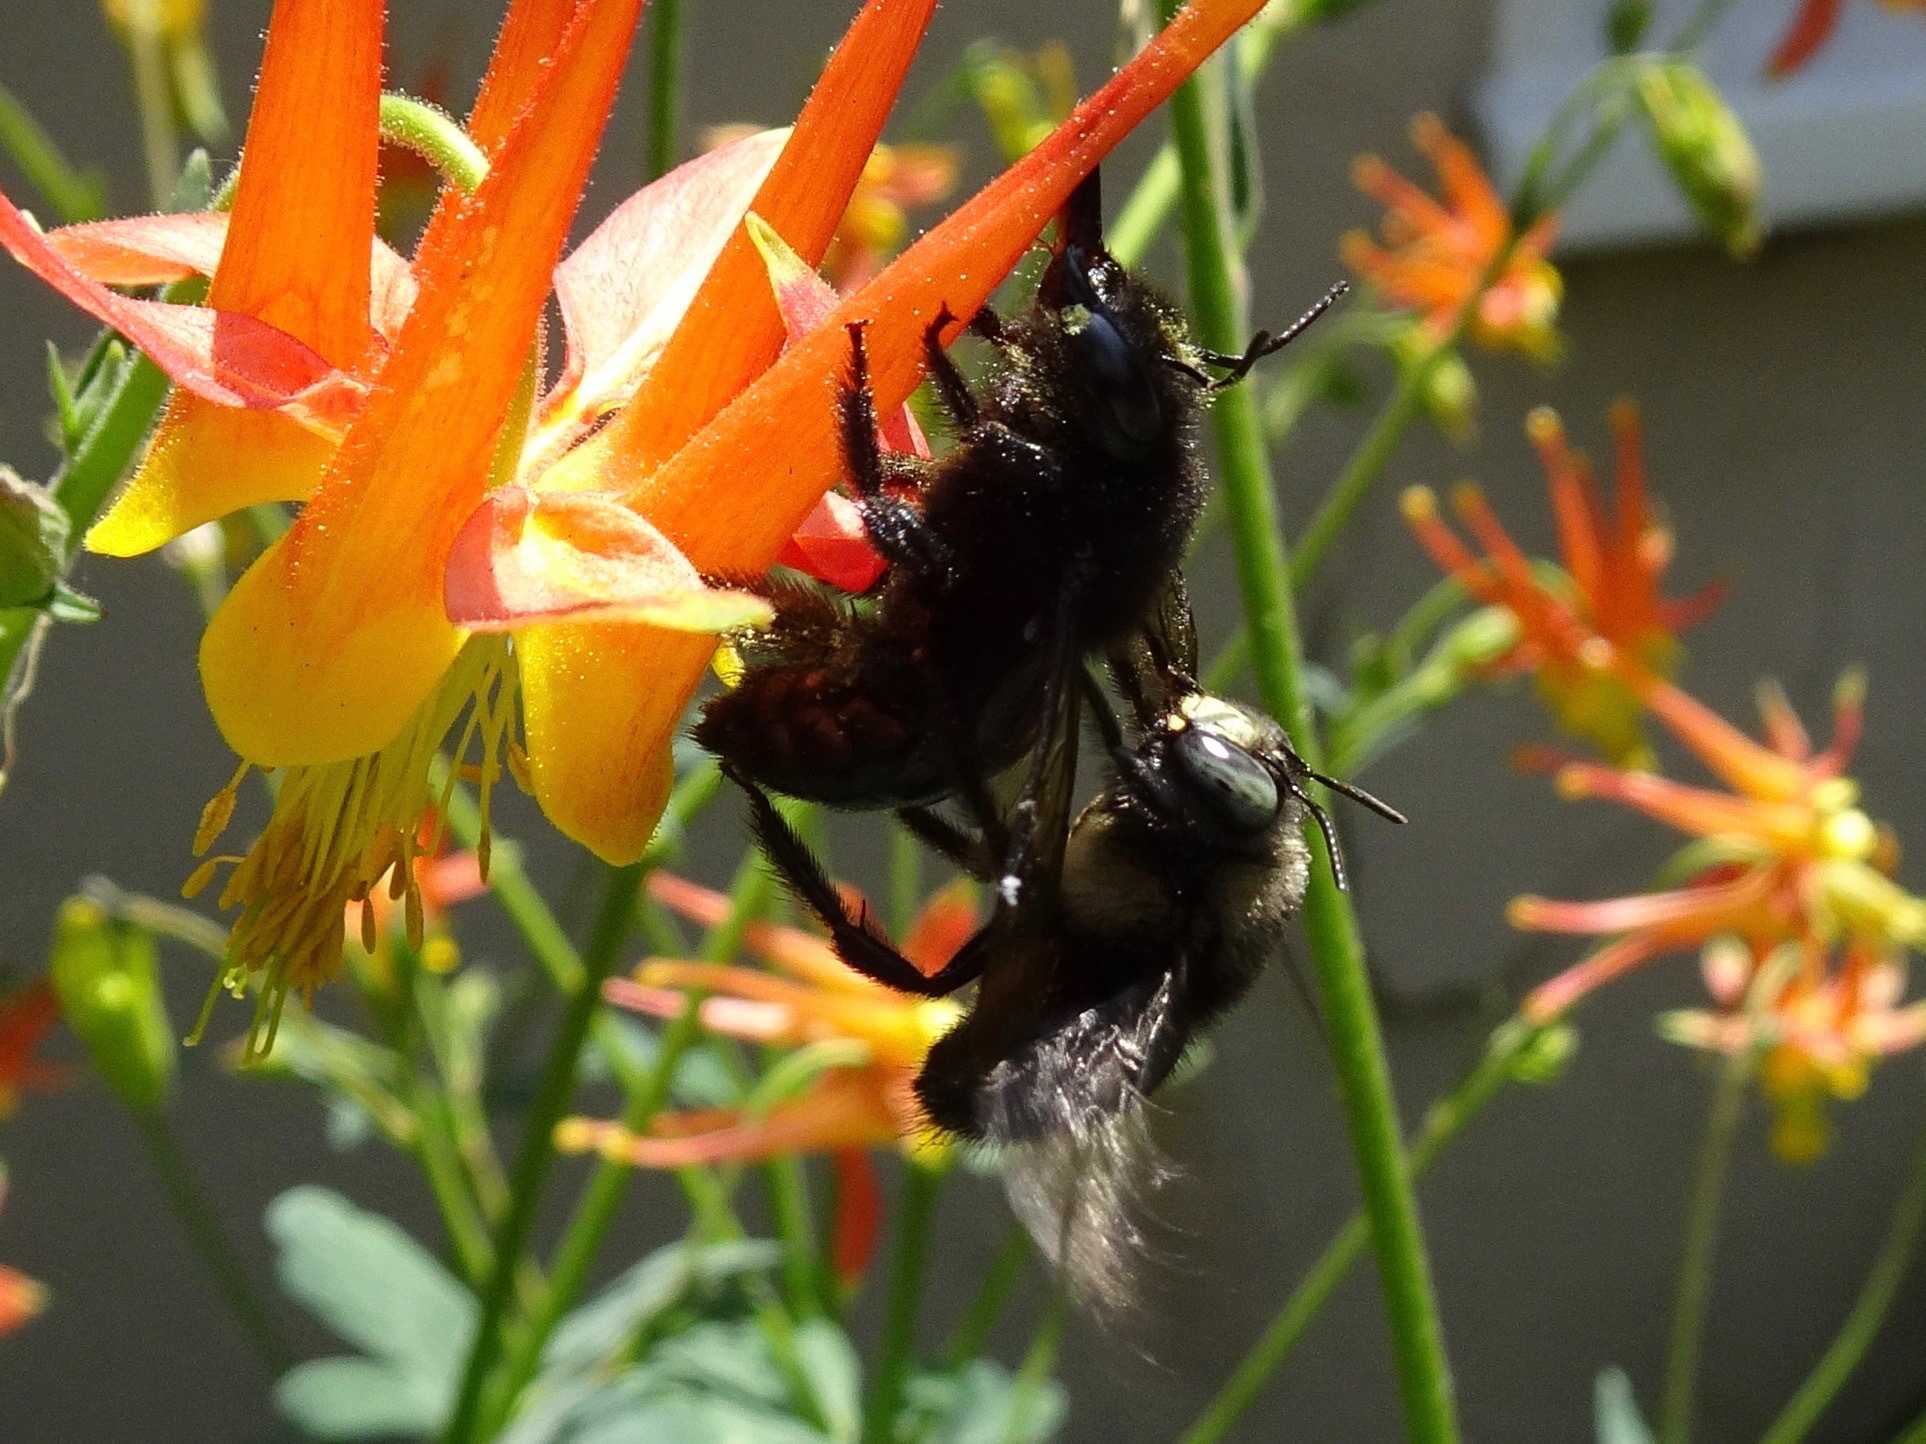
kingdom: Animalia
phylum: Arthropoda
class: Insecta
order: Hymenoptera
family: Apidae
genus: Xylocopa
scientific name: Xylocopa tabaniformis
